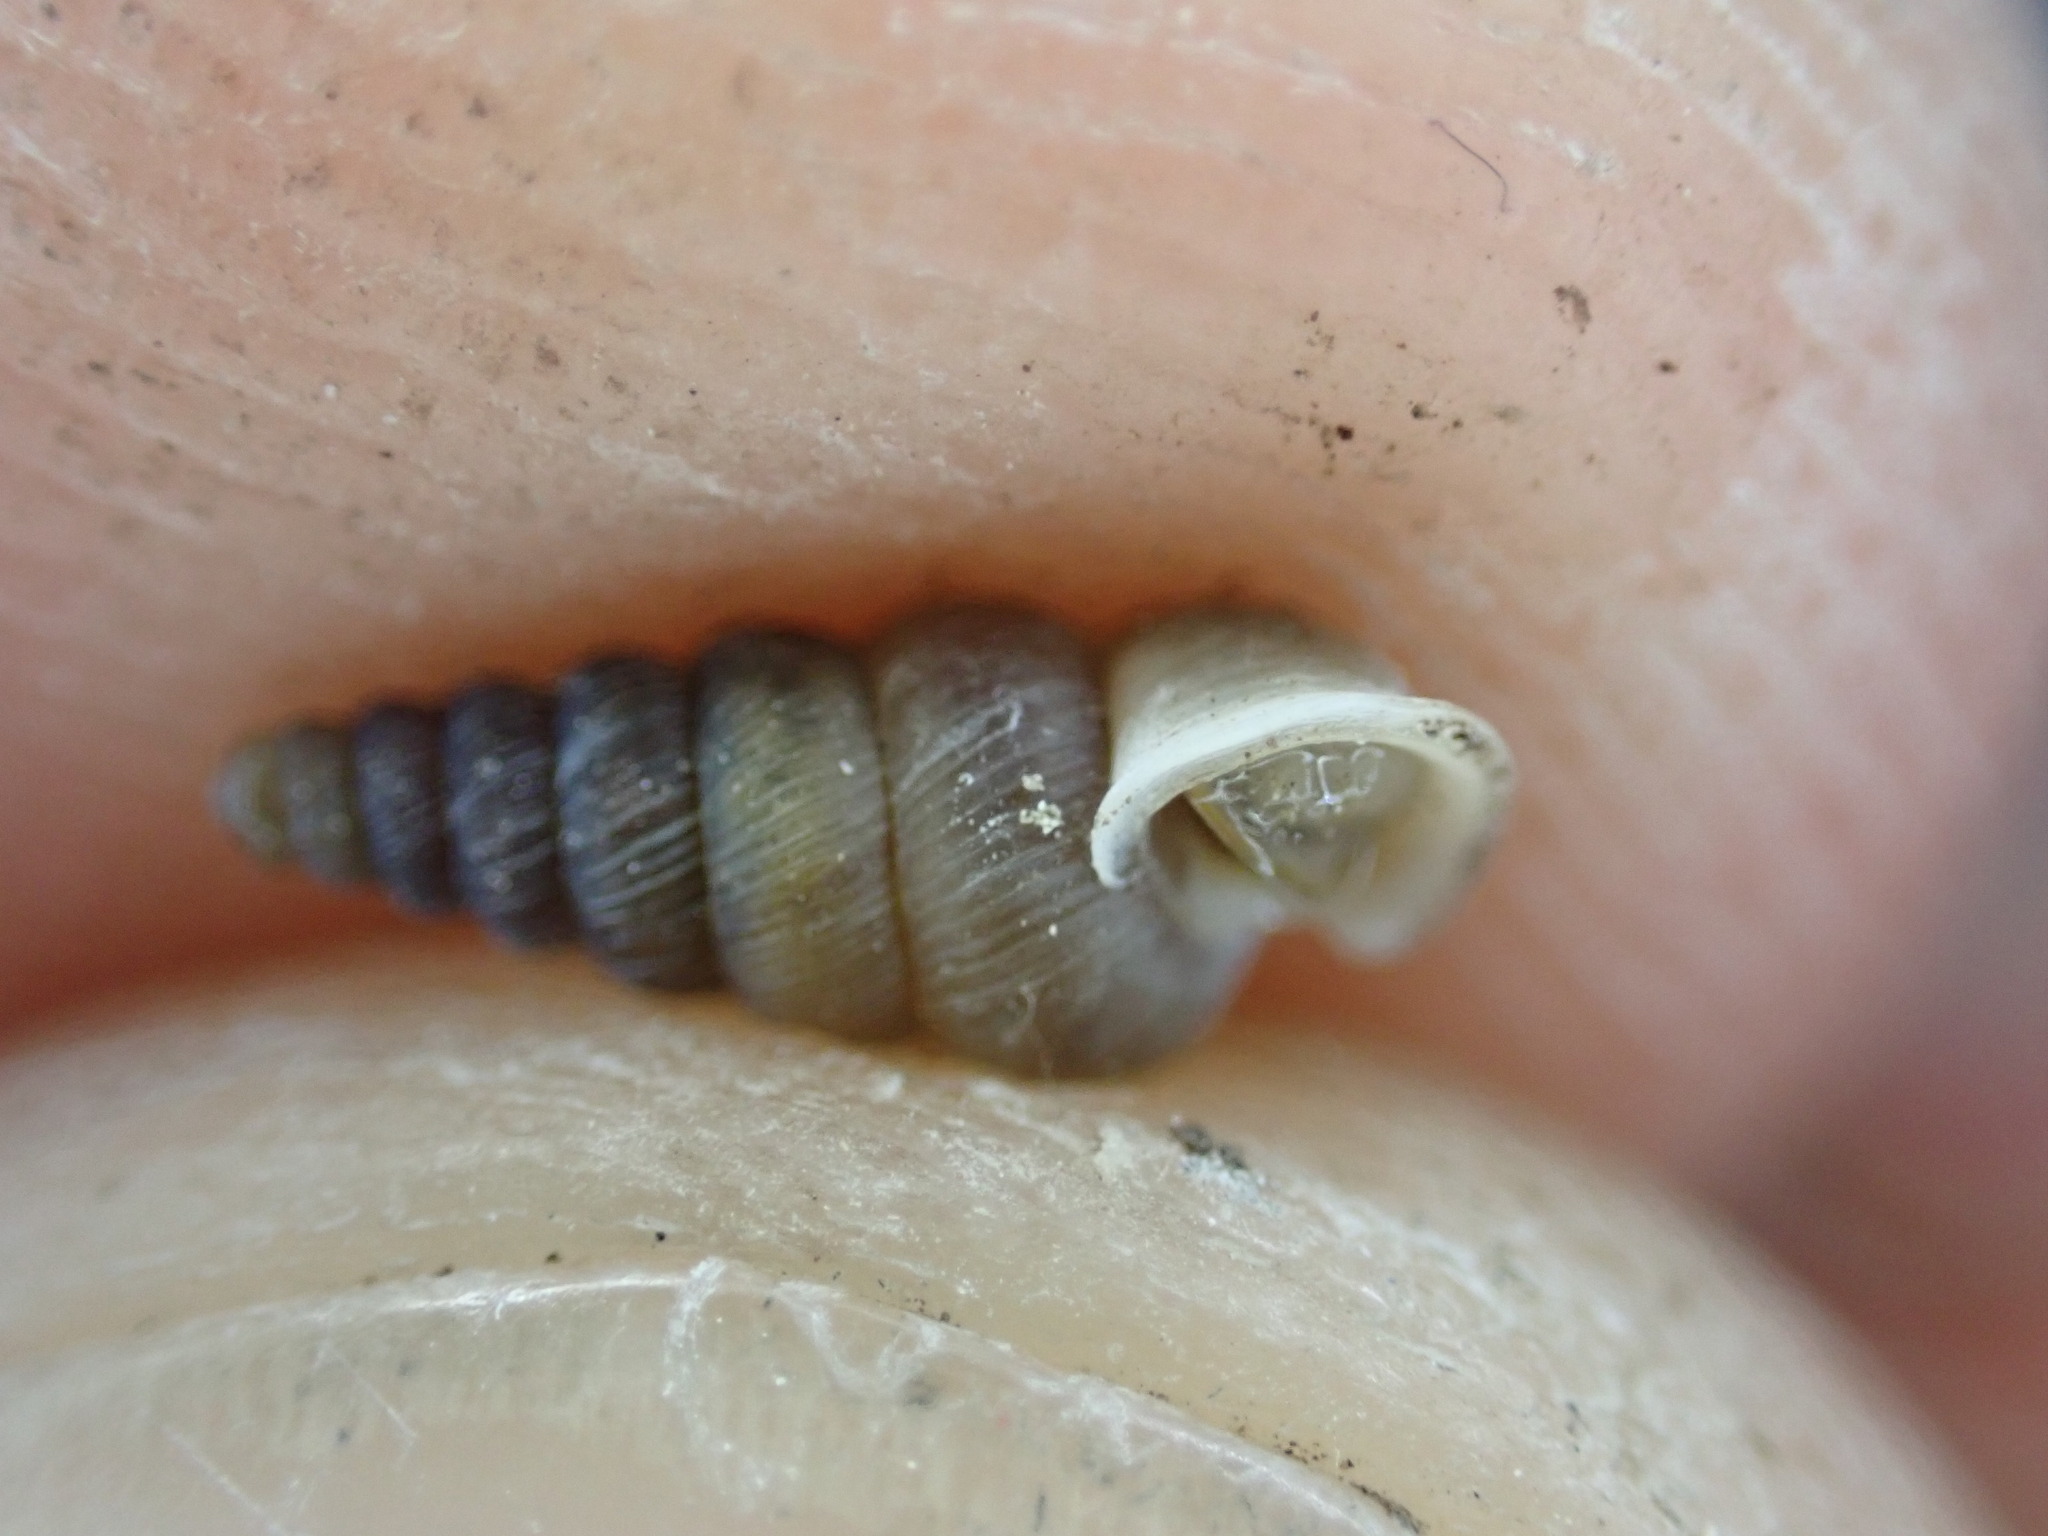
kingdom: Animalia
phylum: Mollusca
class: Gastropoda
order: Architaenioglossa
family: Cochlostomatidae
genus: Cochlostoma
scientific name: Cochlostoma patulum
